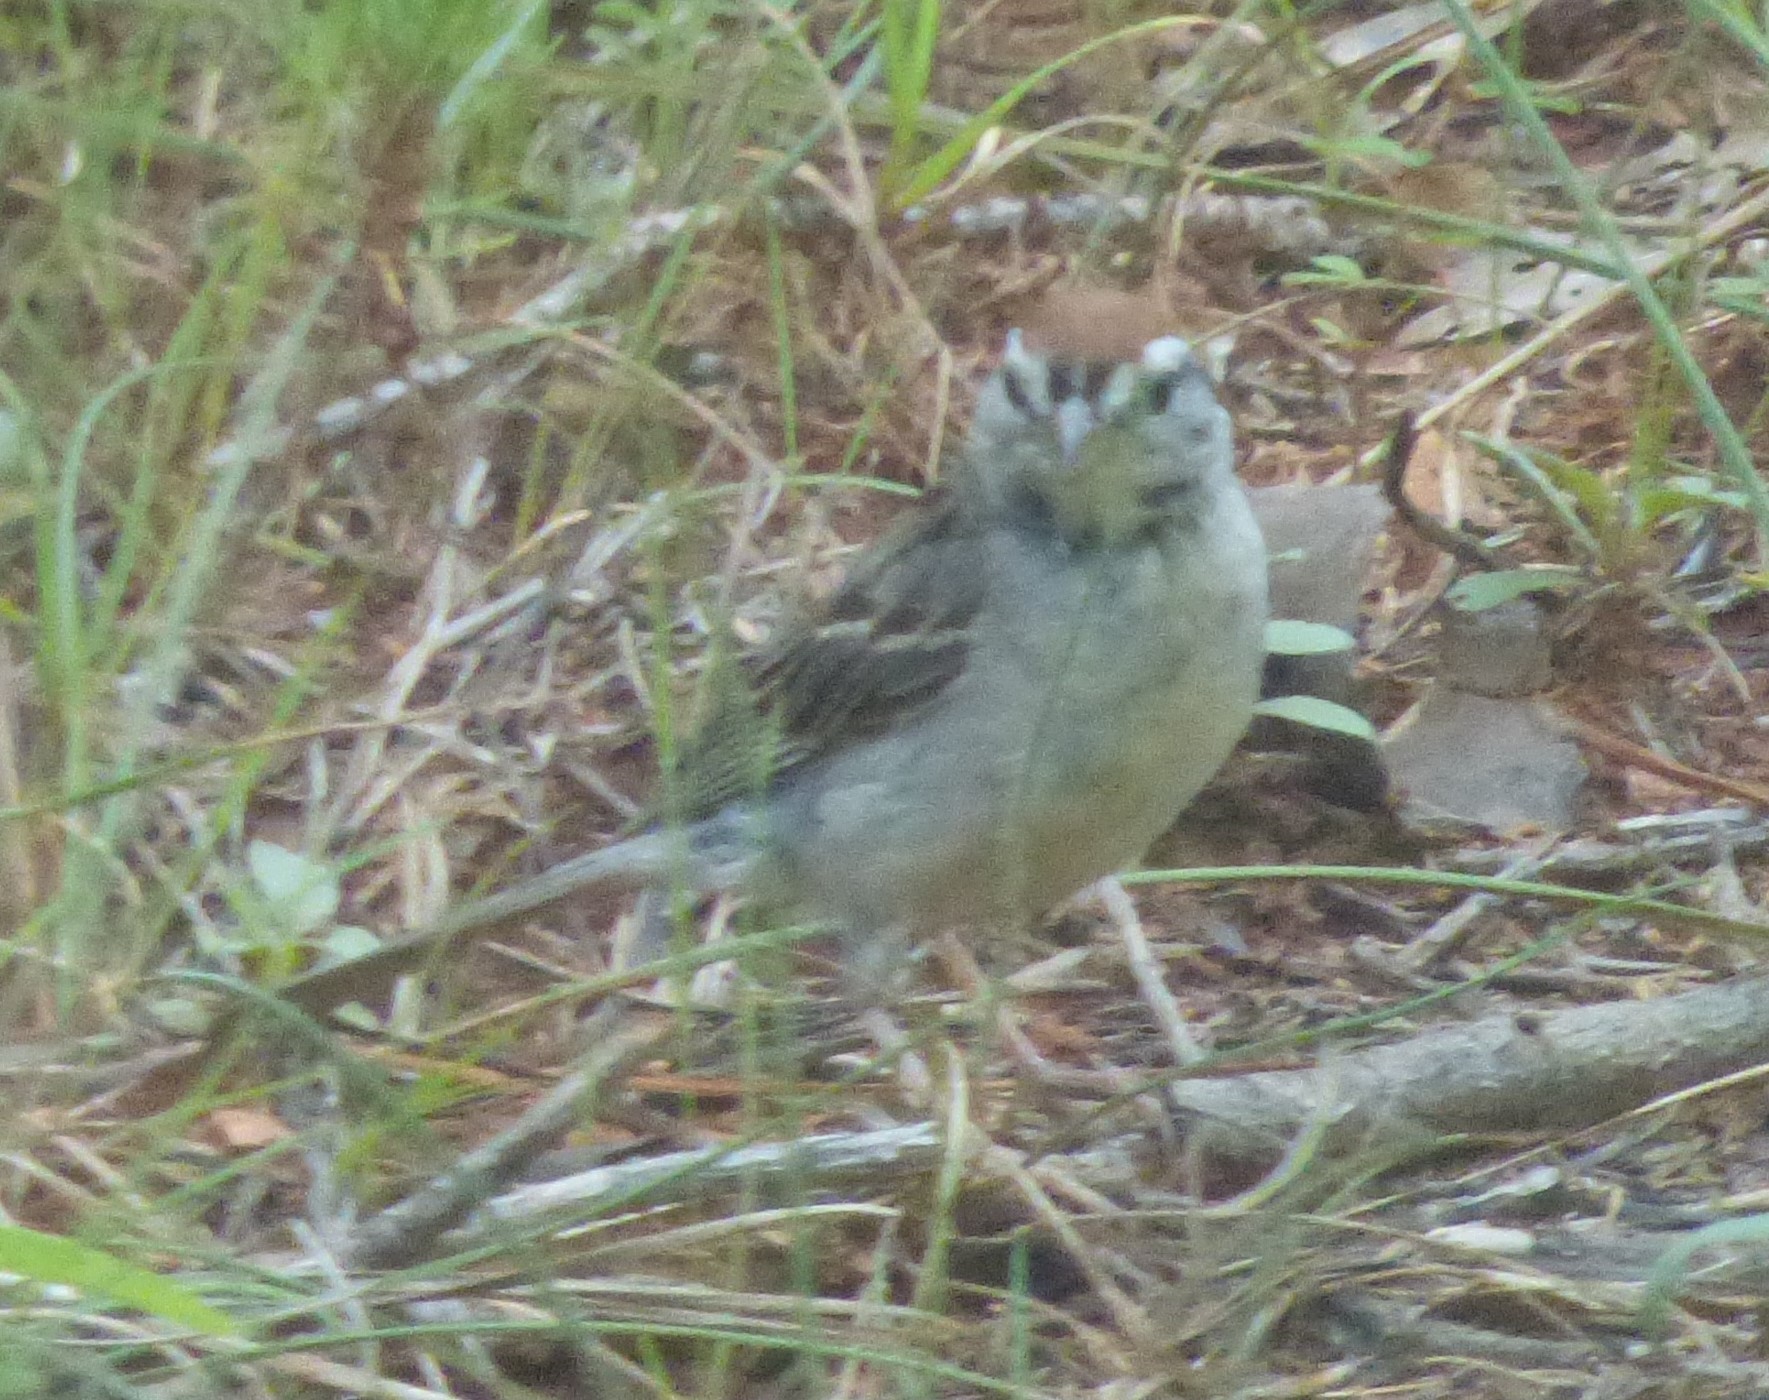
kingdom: Animalia
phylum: Chordata
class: Aves
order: Passeriformes
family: Passerellidae
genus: Spizella
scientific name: Spizella passerina
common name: Chipping sparrow
